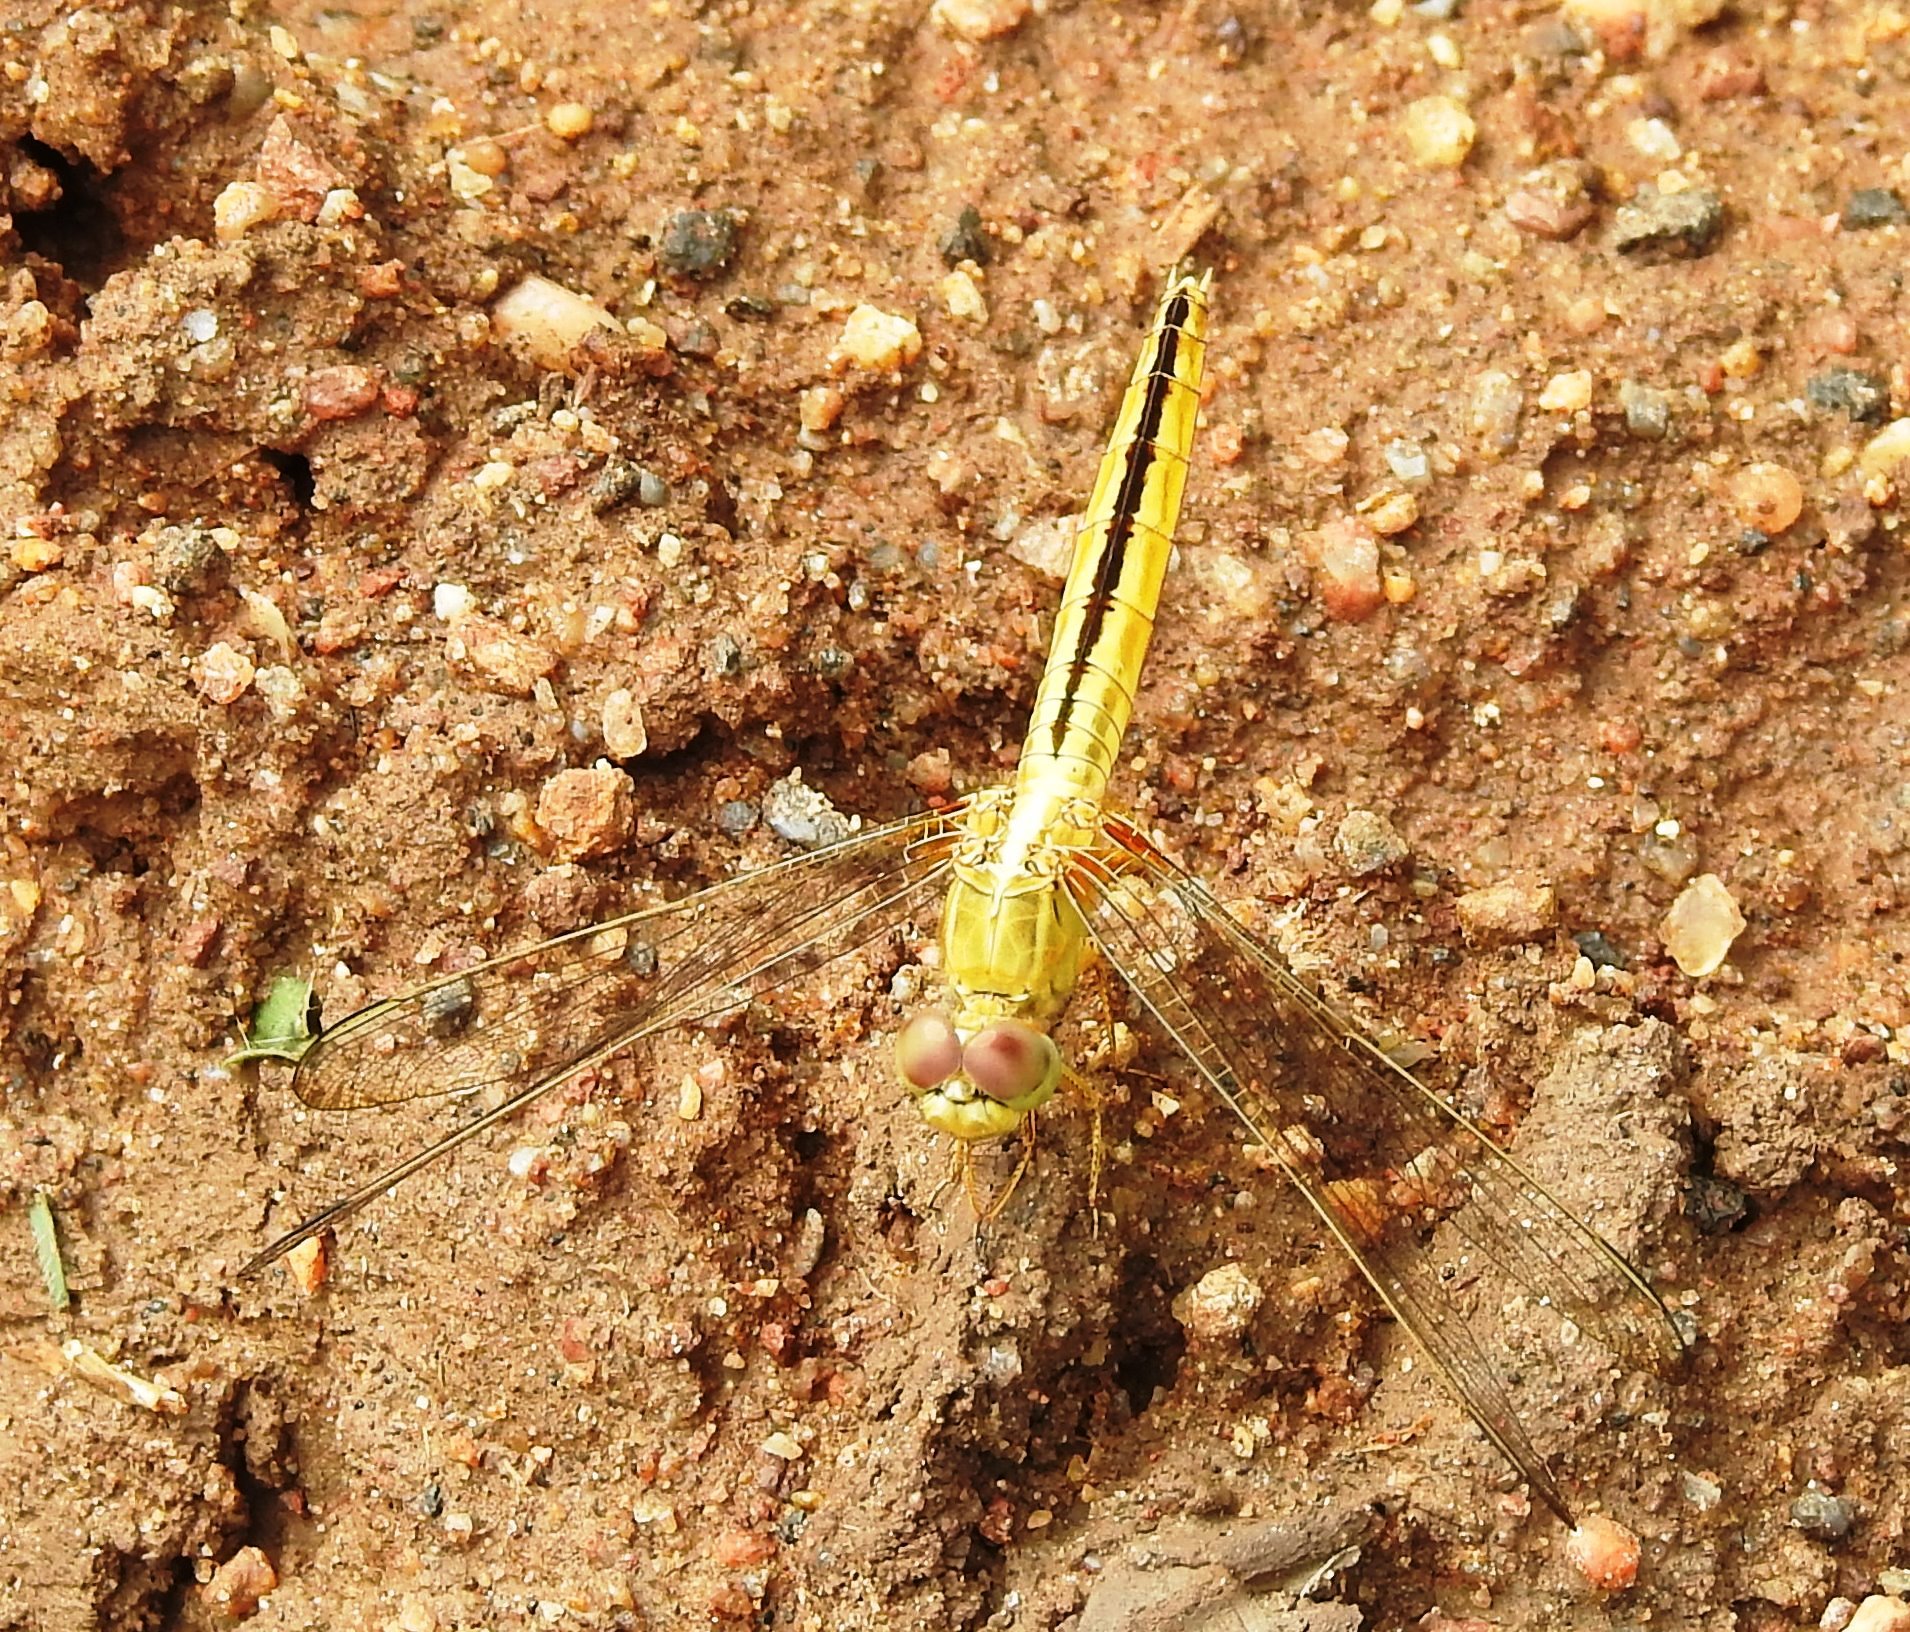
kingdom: Animalia
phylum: Arthropoda
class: Insecta
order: Odonata
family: Libellulidae
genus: Crocothemis
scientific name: Crocothemis servilia
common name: Scarlet skimmer
